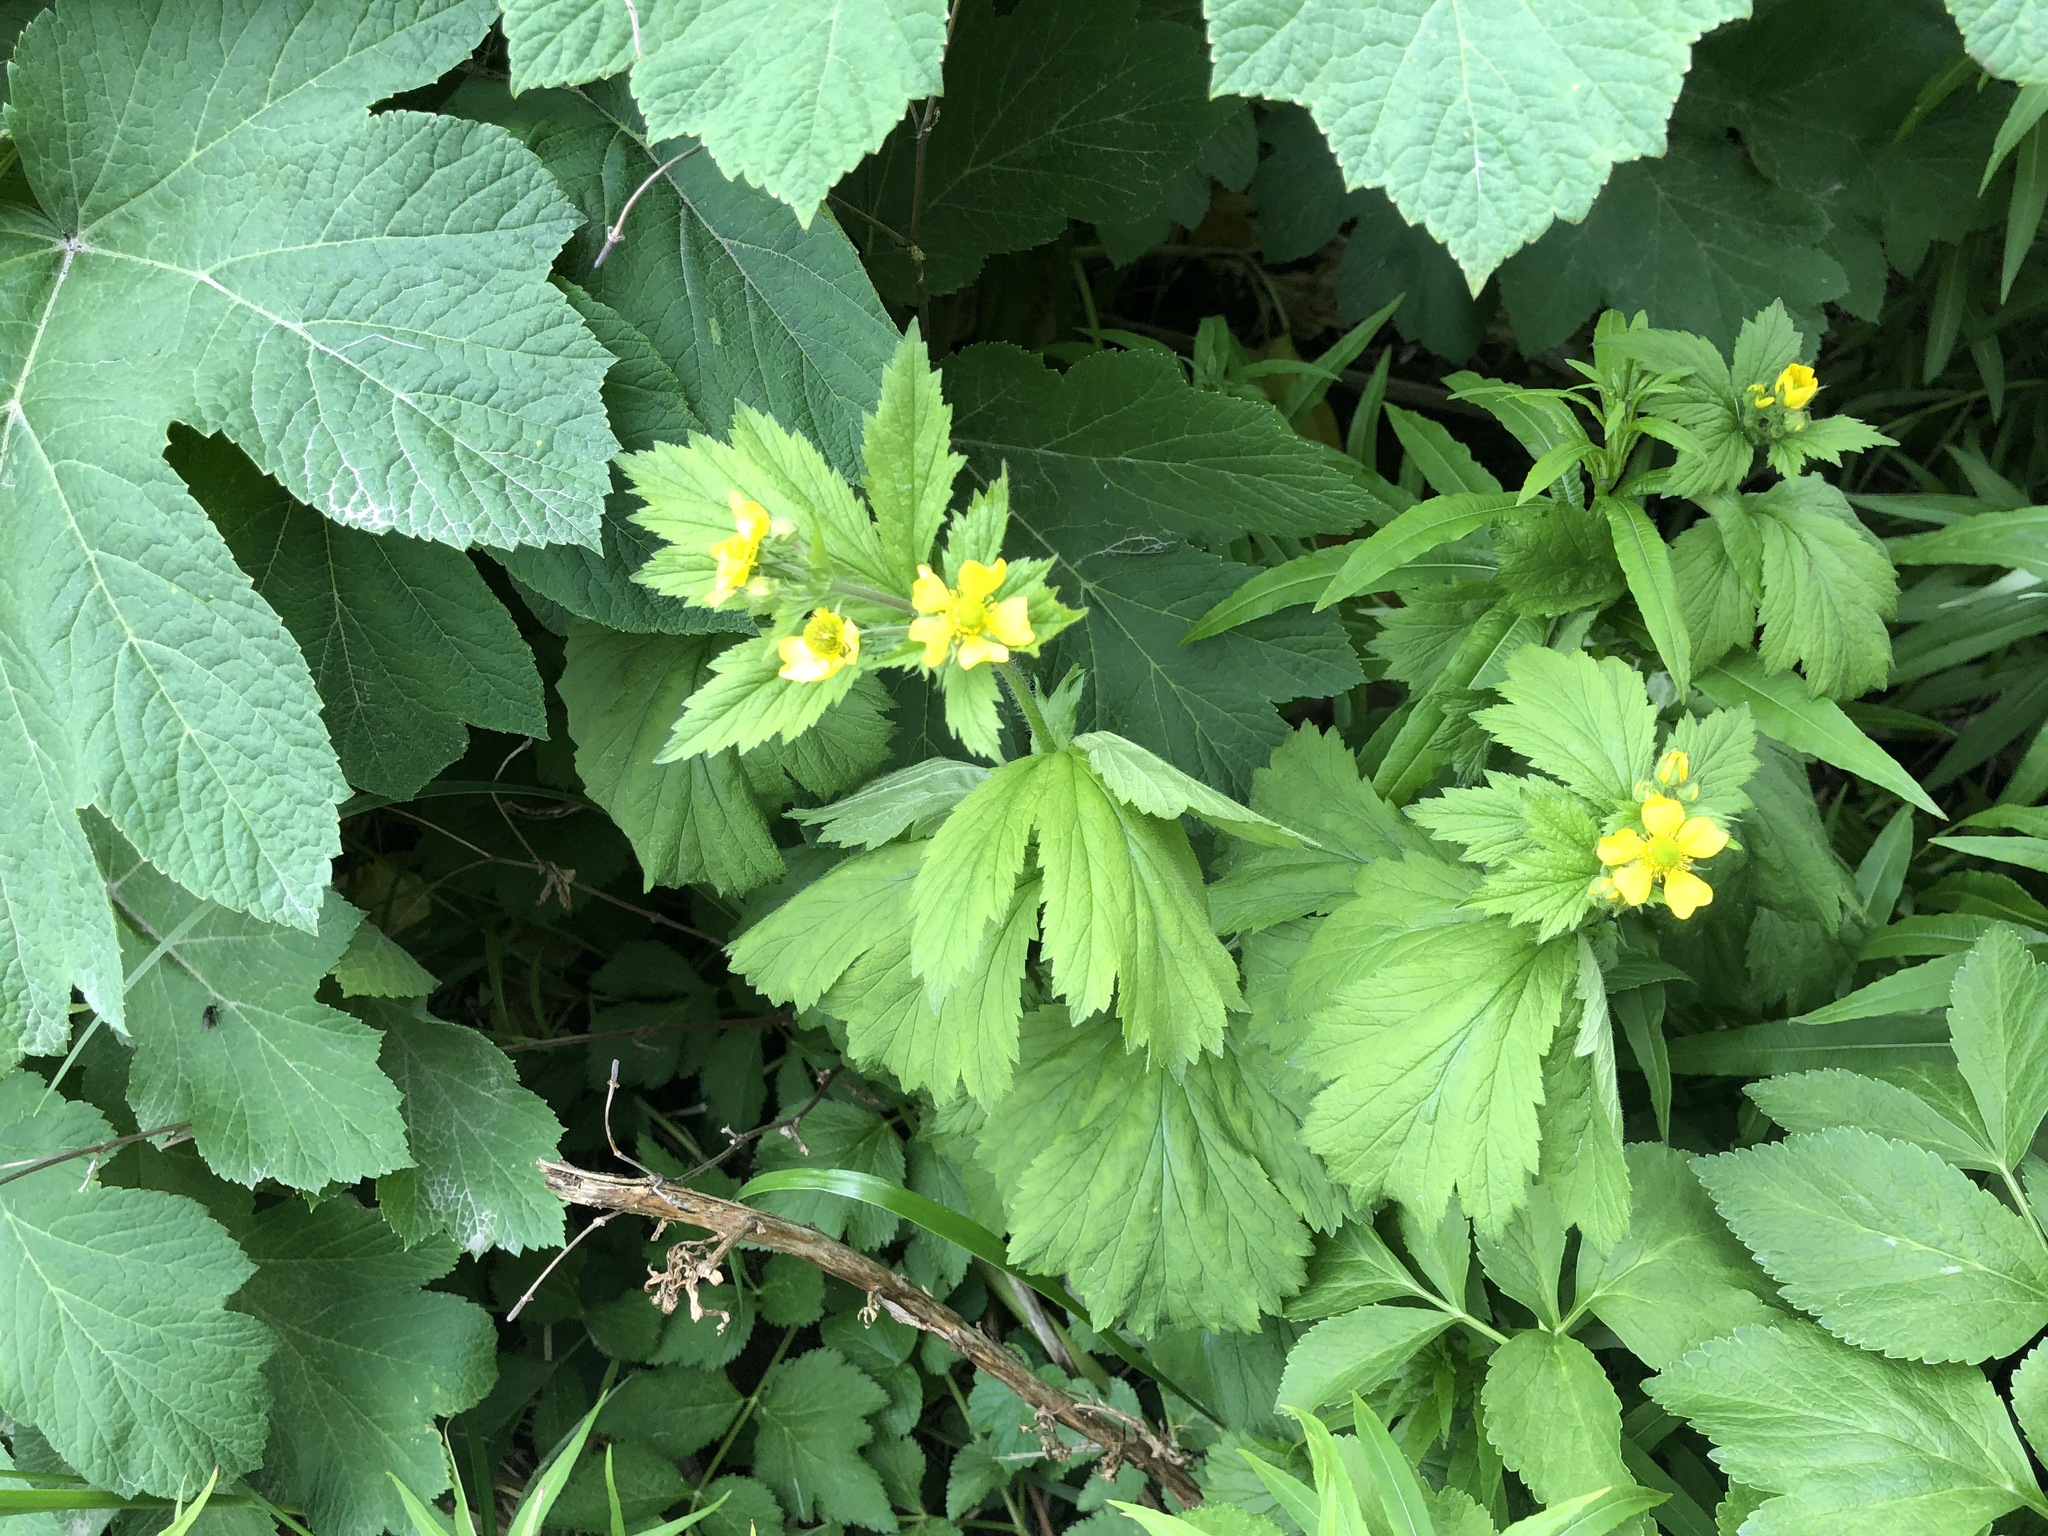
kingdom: Plantae
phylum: Tracheophyta
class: Magnoliopsida
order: Rosales
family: Rosaceae
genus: Geum
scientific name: Geum macrophyllum
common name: Large-leaved avens
